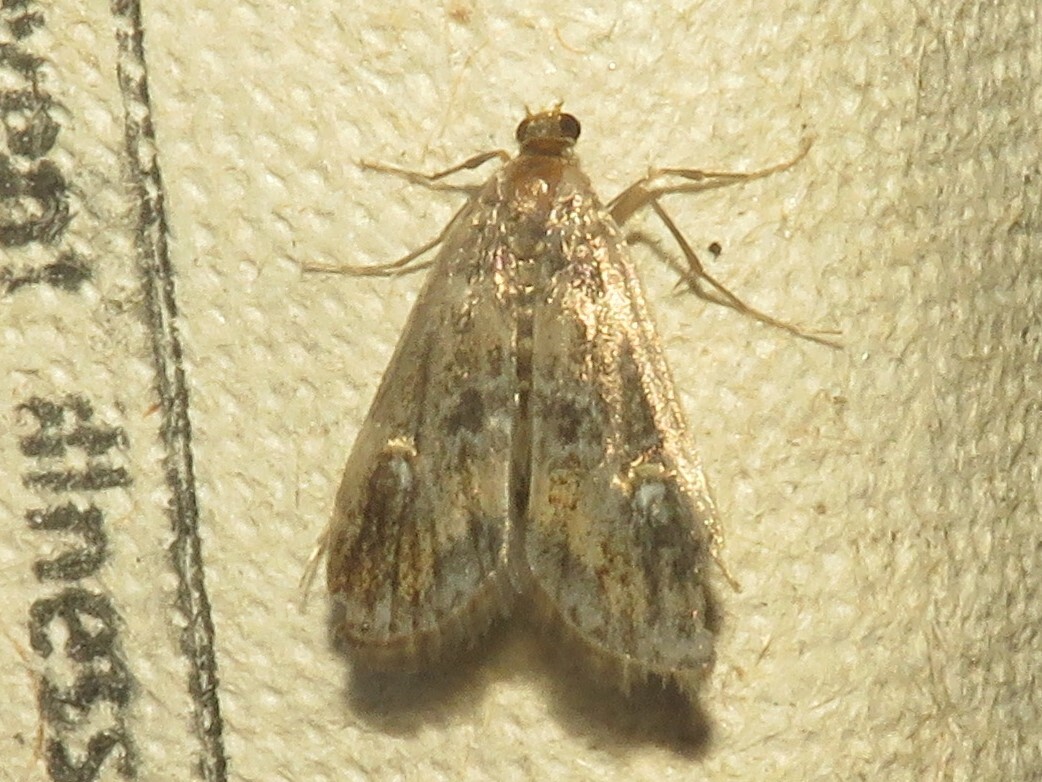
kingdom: Animalia
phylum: Arthropoda
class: Insecta
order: Lepidoptera
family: Crambidae
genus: Elophila
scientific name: Elophila obliteralis
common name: Waterlily leafcutter moth
